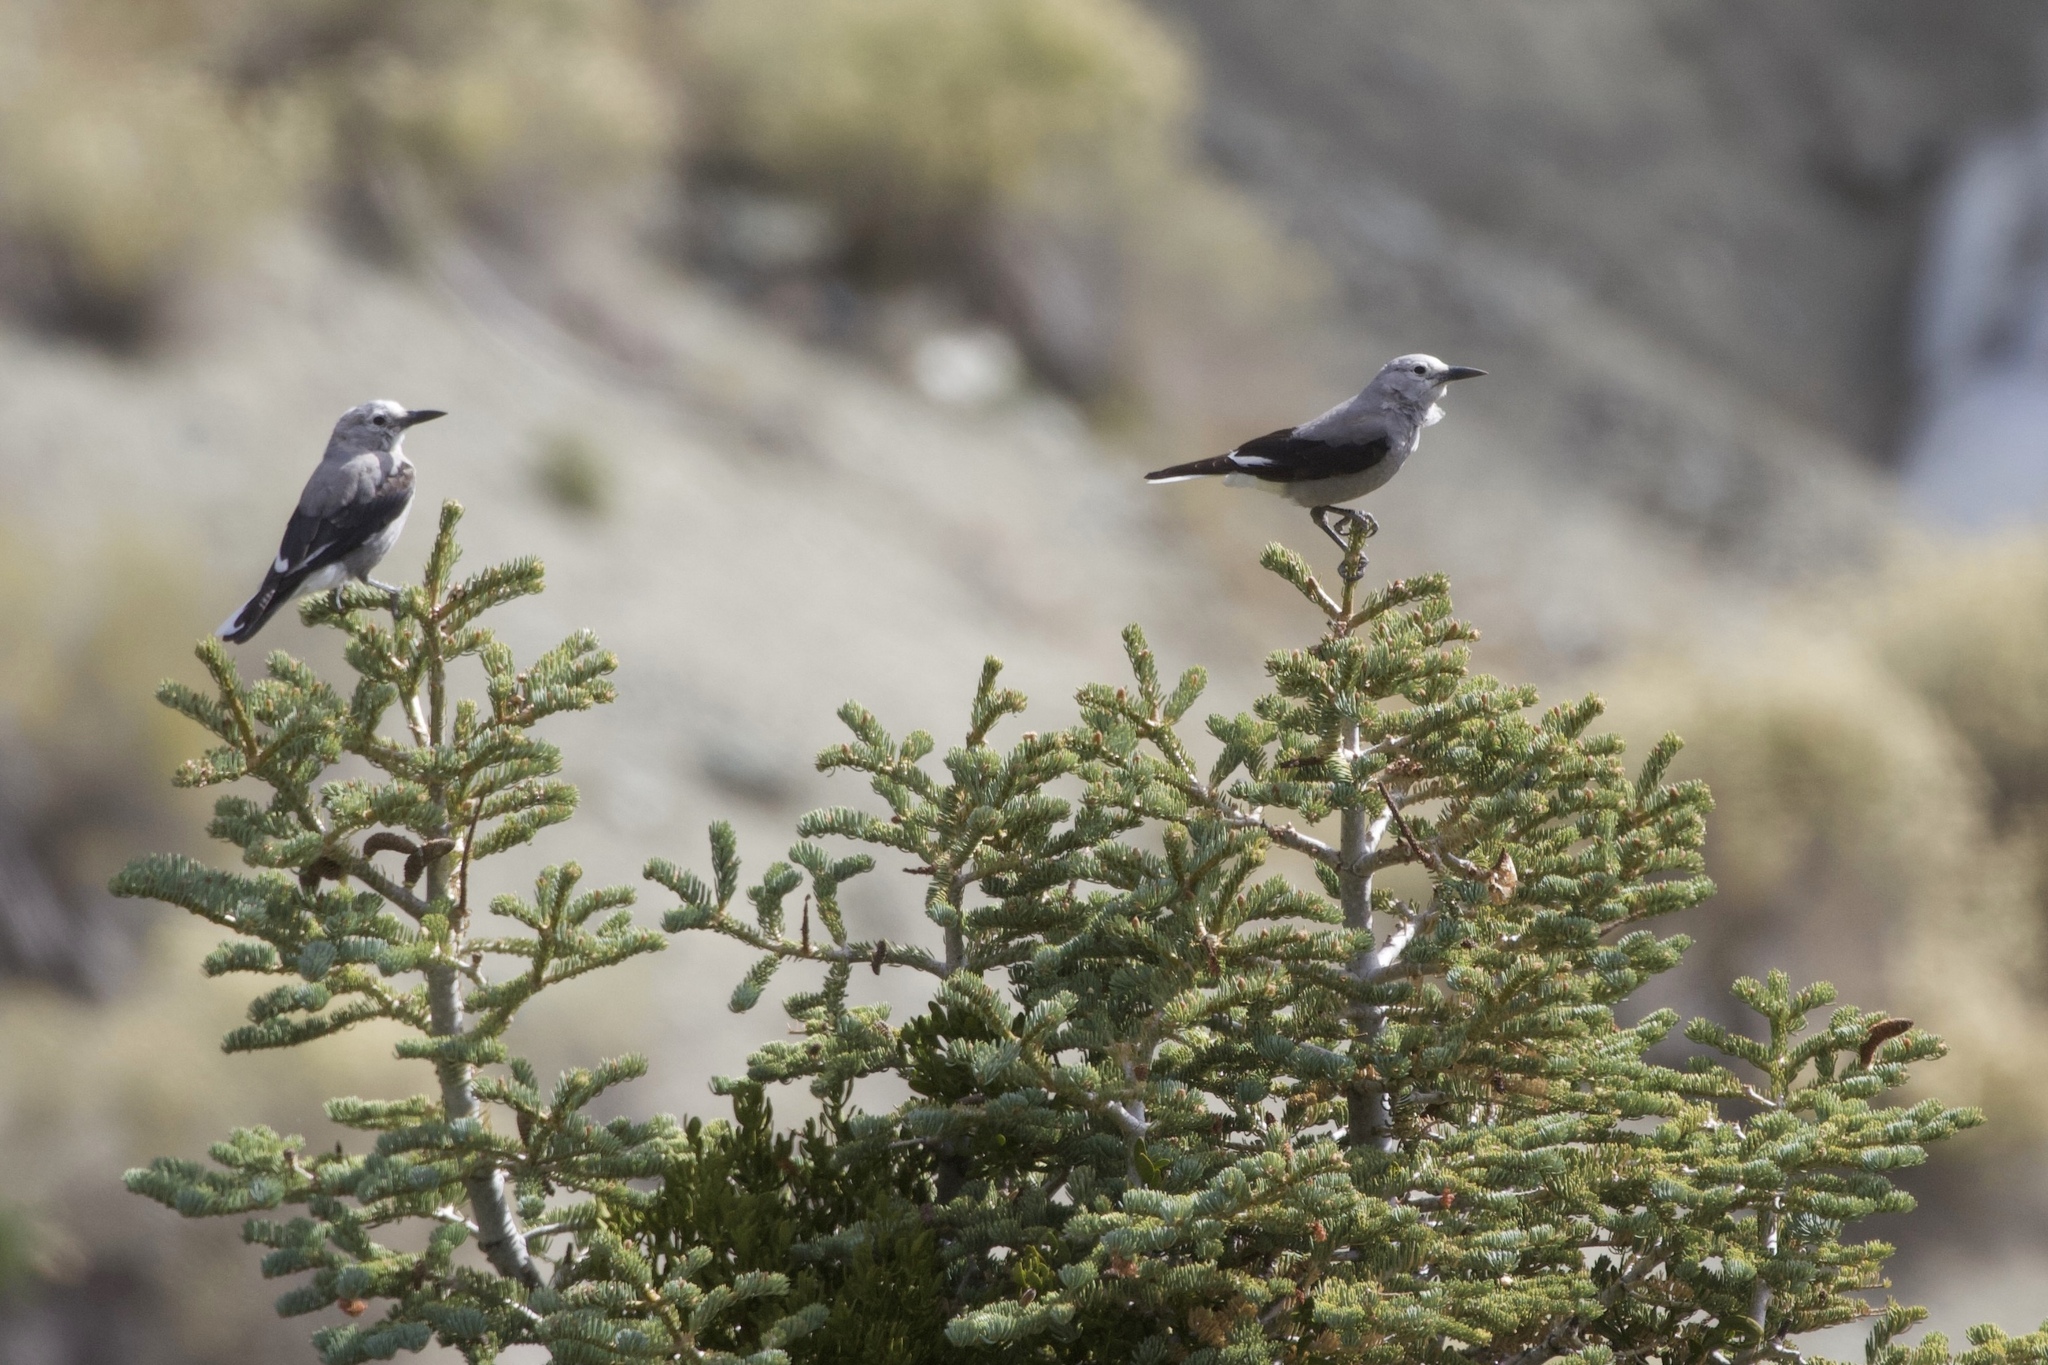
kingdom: Animalia
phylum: Chordata
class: Aves
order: Passeriformes
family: Corvidae
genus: Nucifraga
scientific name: Nucifraga columbiana
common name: Clark's nutcracker
